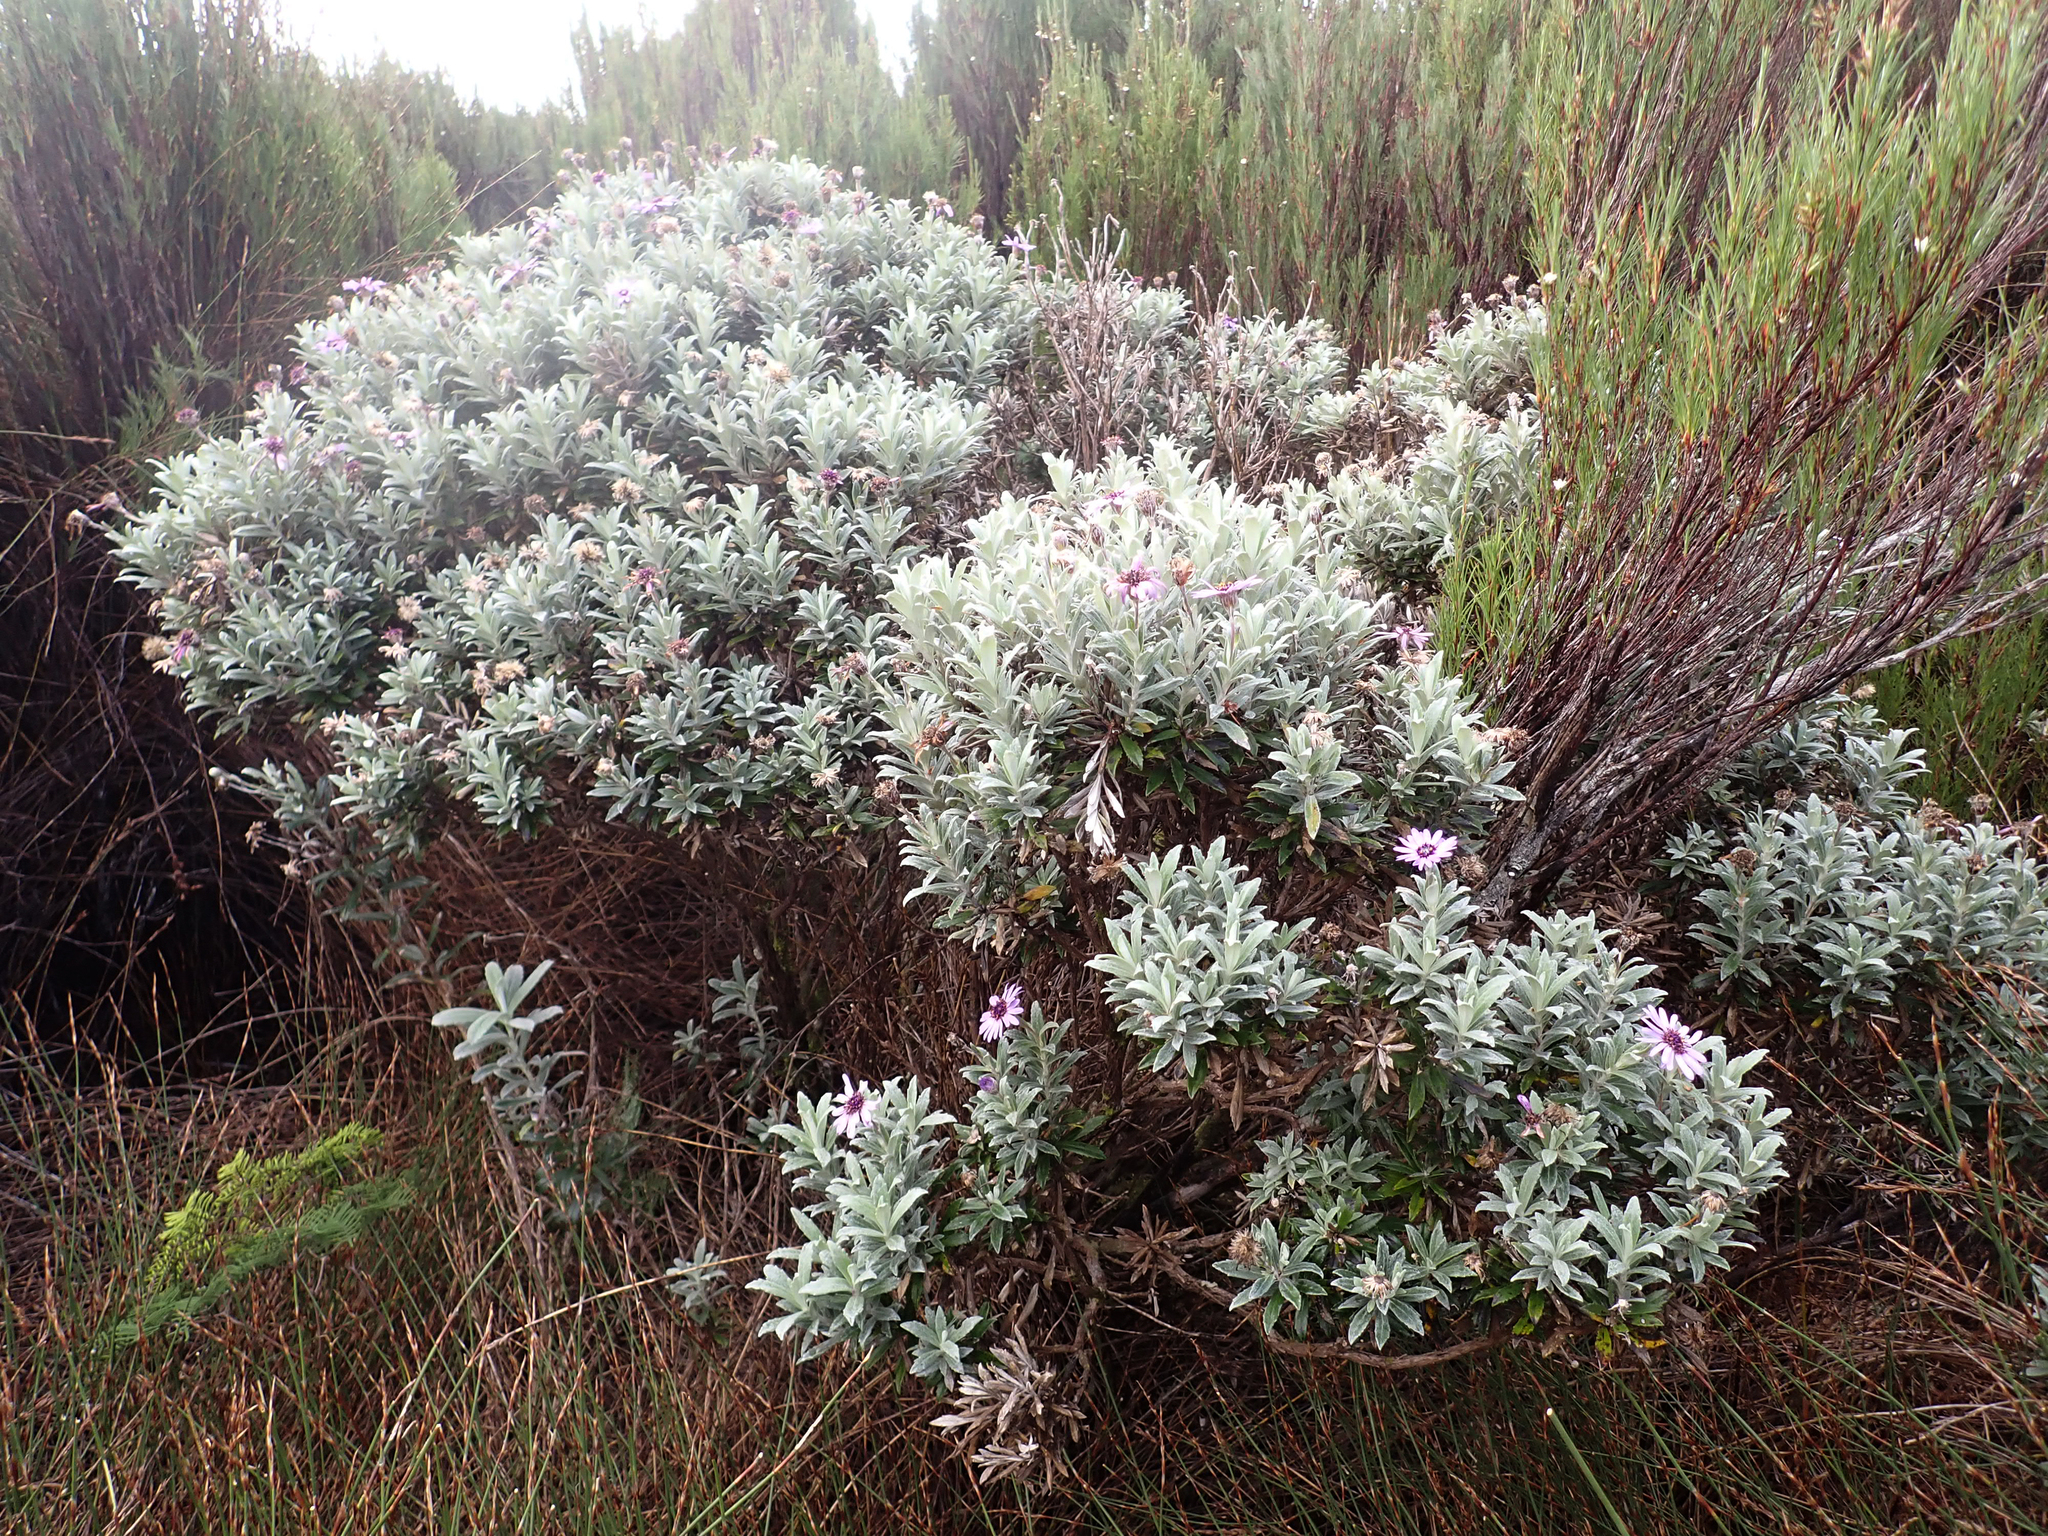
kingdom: Plantae
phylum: Tracheophyta
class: Magnoliopsida
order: Asterales
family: Asteraceae
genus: Macrolearia
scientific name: Macrolearia semidentata
